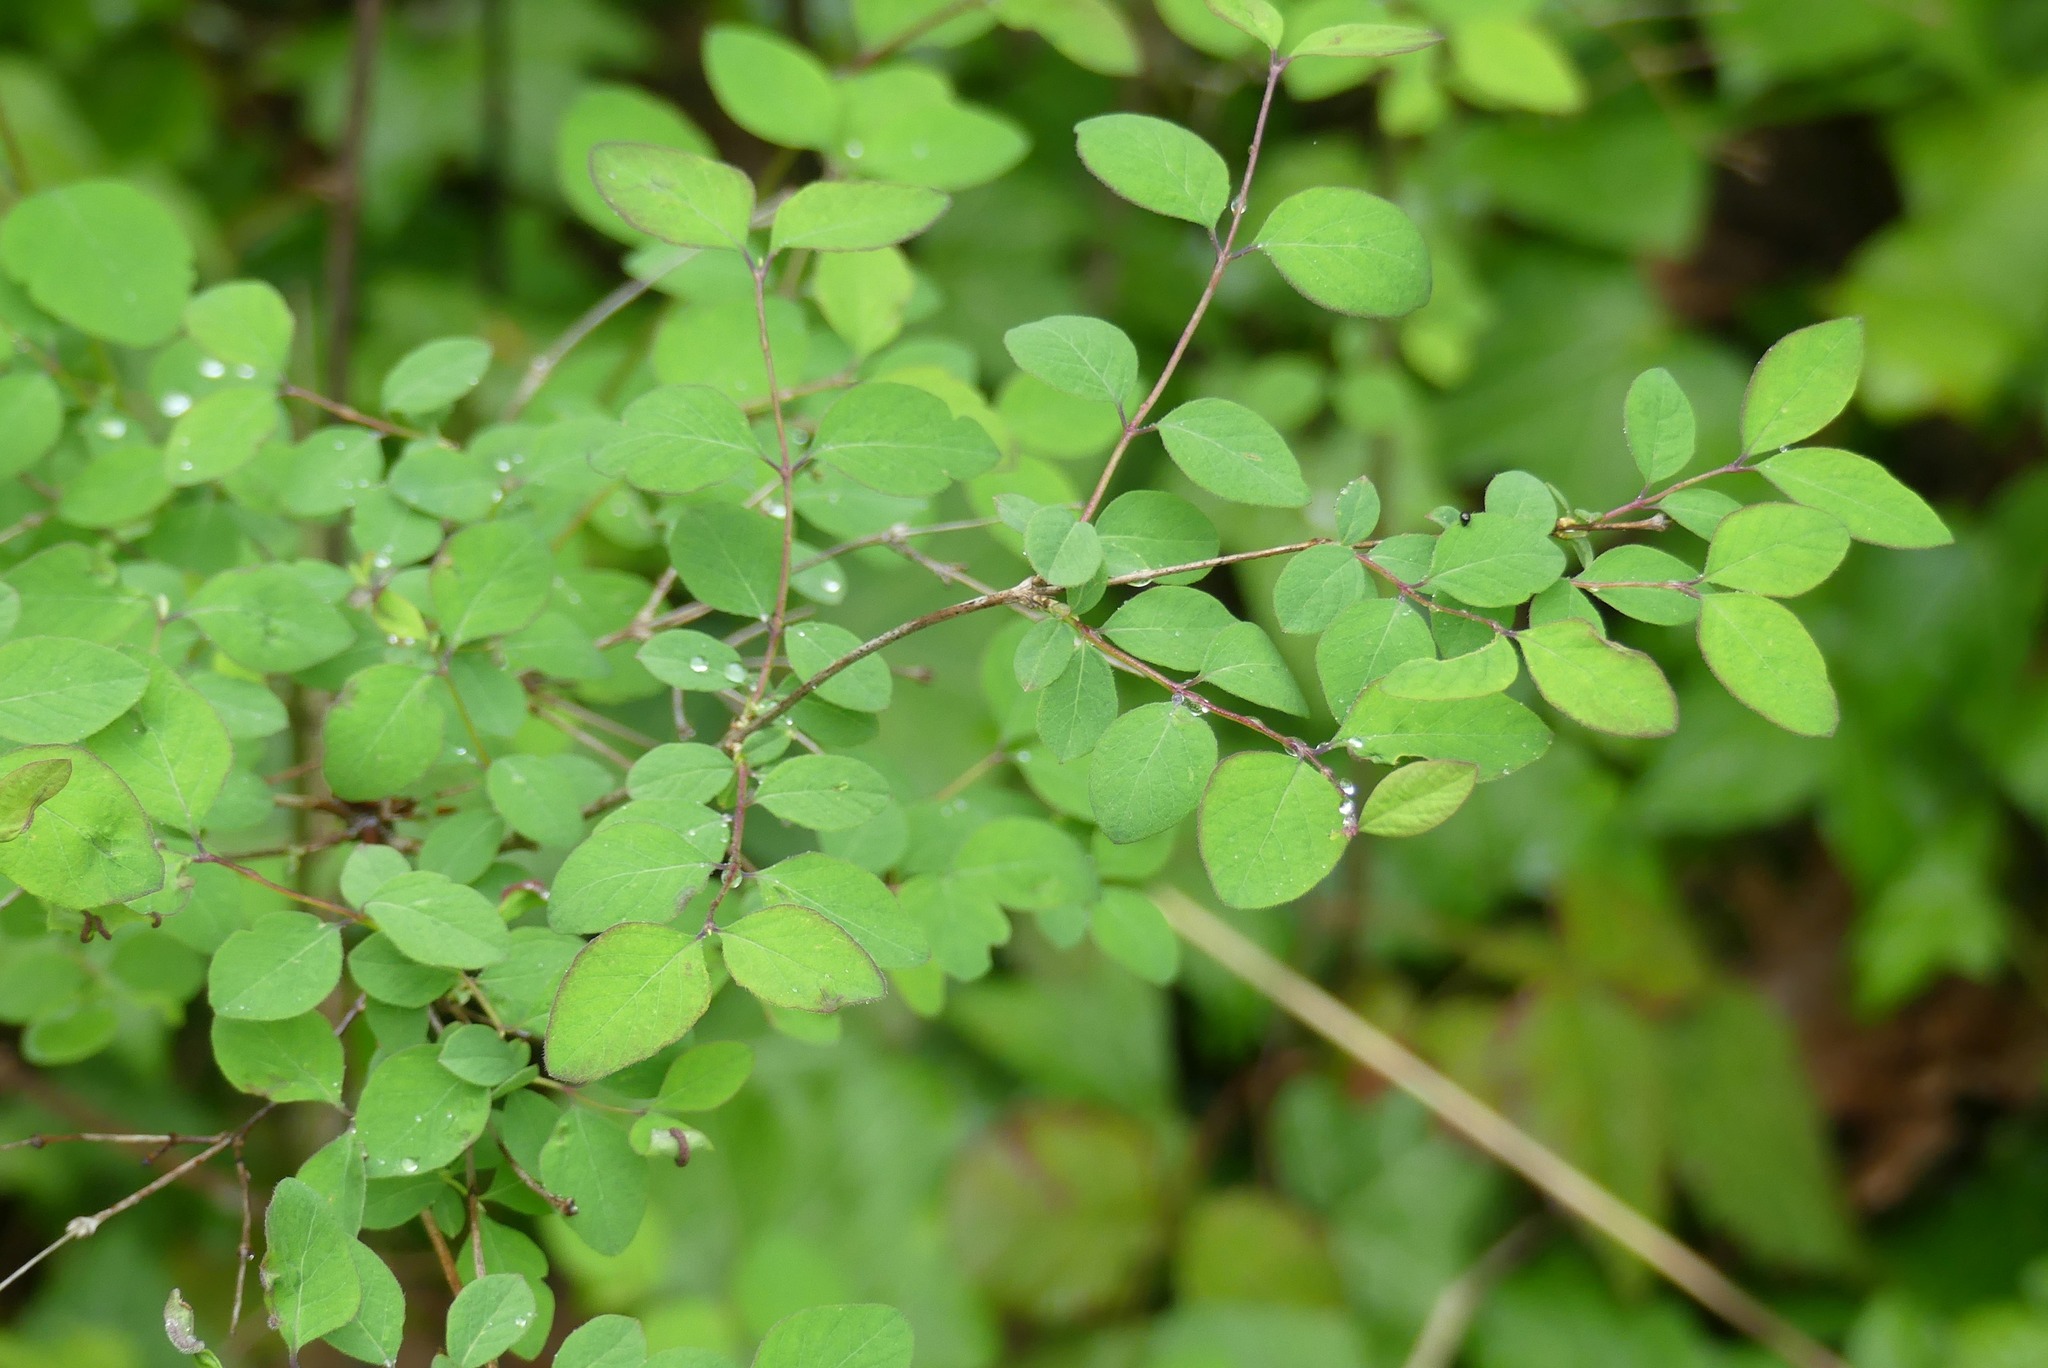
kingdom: Plantae
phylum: Tracheophyta
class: Magnoliopsida
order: Dipsacales
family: Caprifoliaceae
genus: Symphoricarpos
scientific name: Symphoricarpos albus
